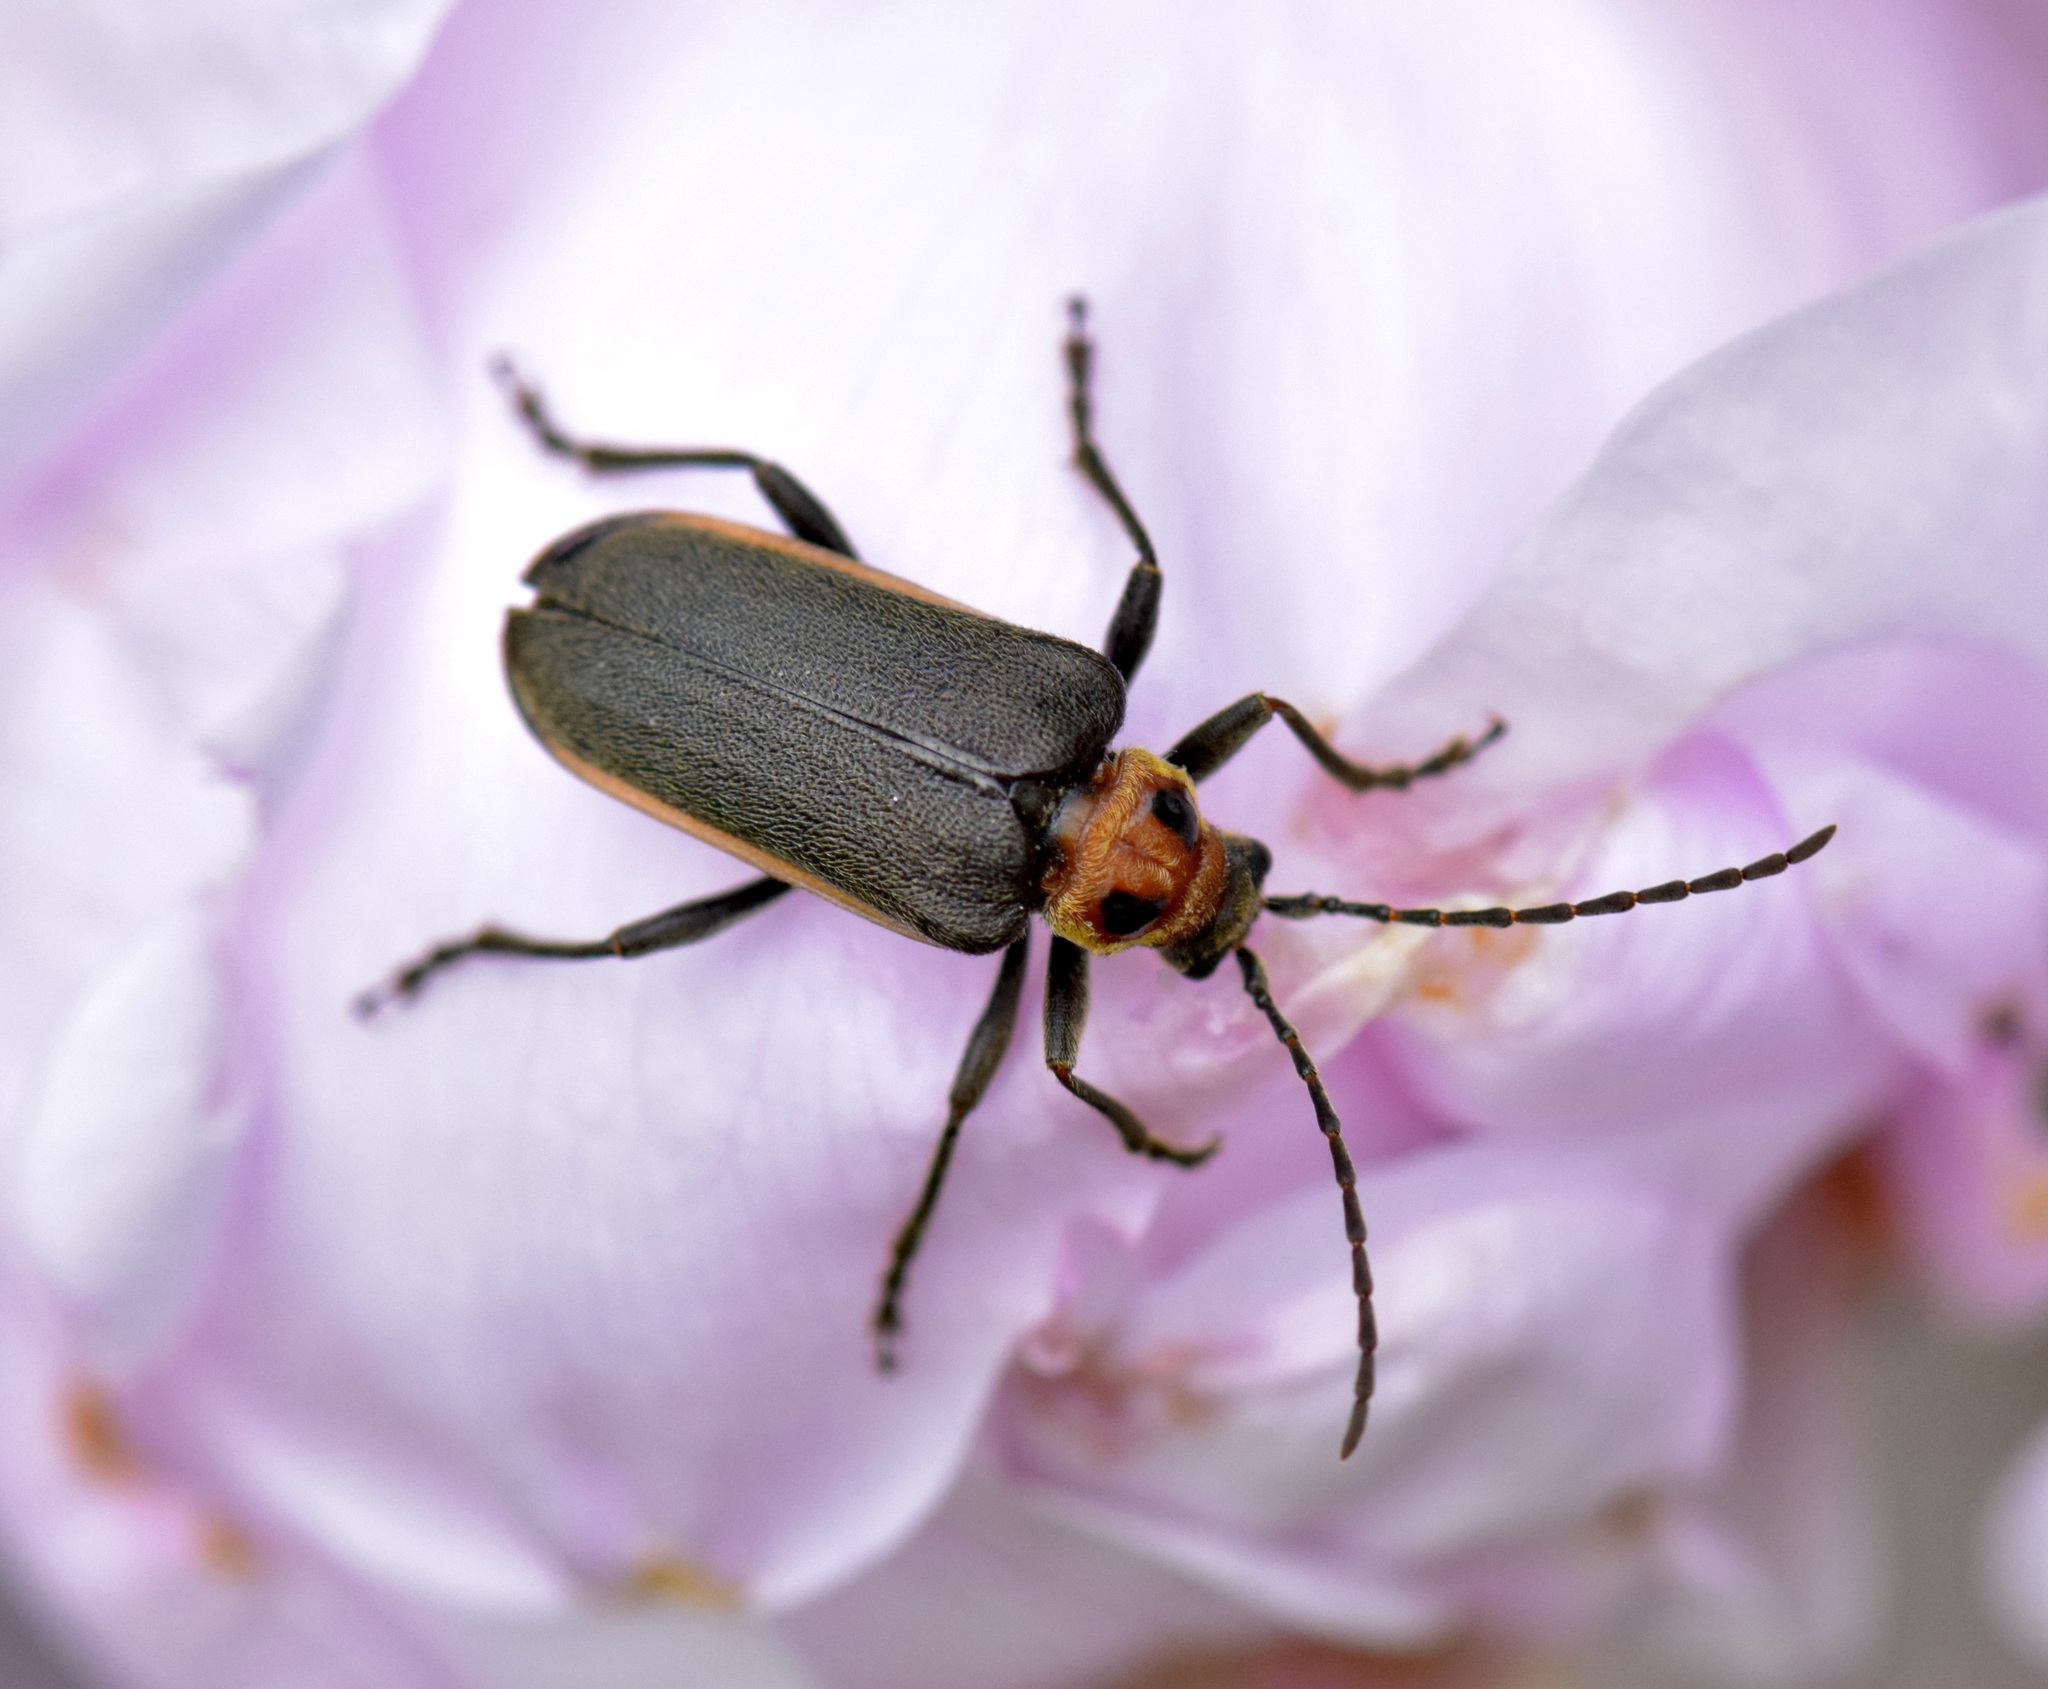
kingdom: Animalia
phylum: Arthropoda
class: Insecta
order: Coleoptera
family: Cerambycidae
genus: Brachysomida
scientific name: Brachysomida bivittata
